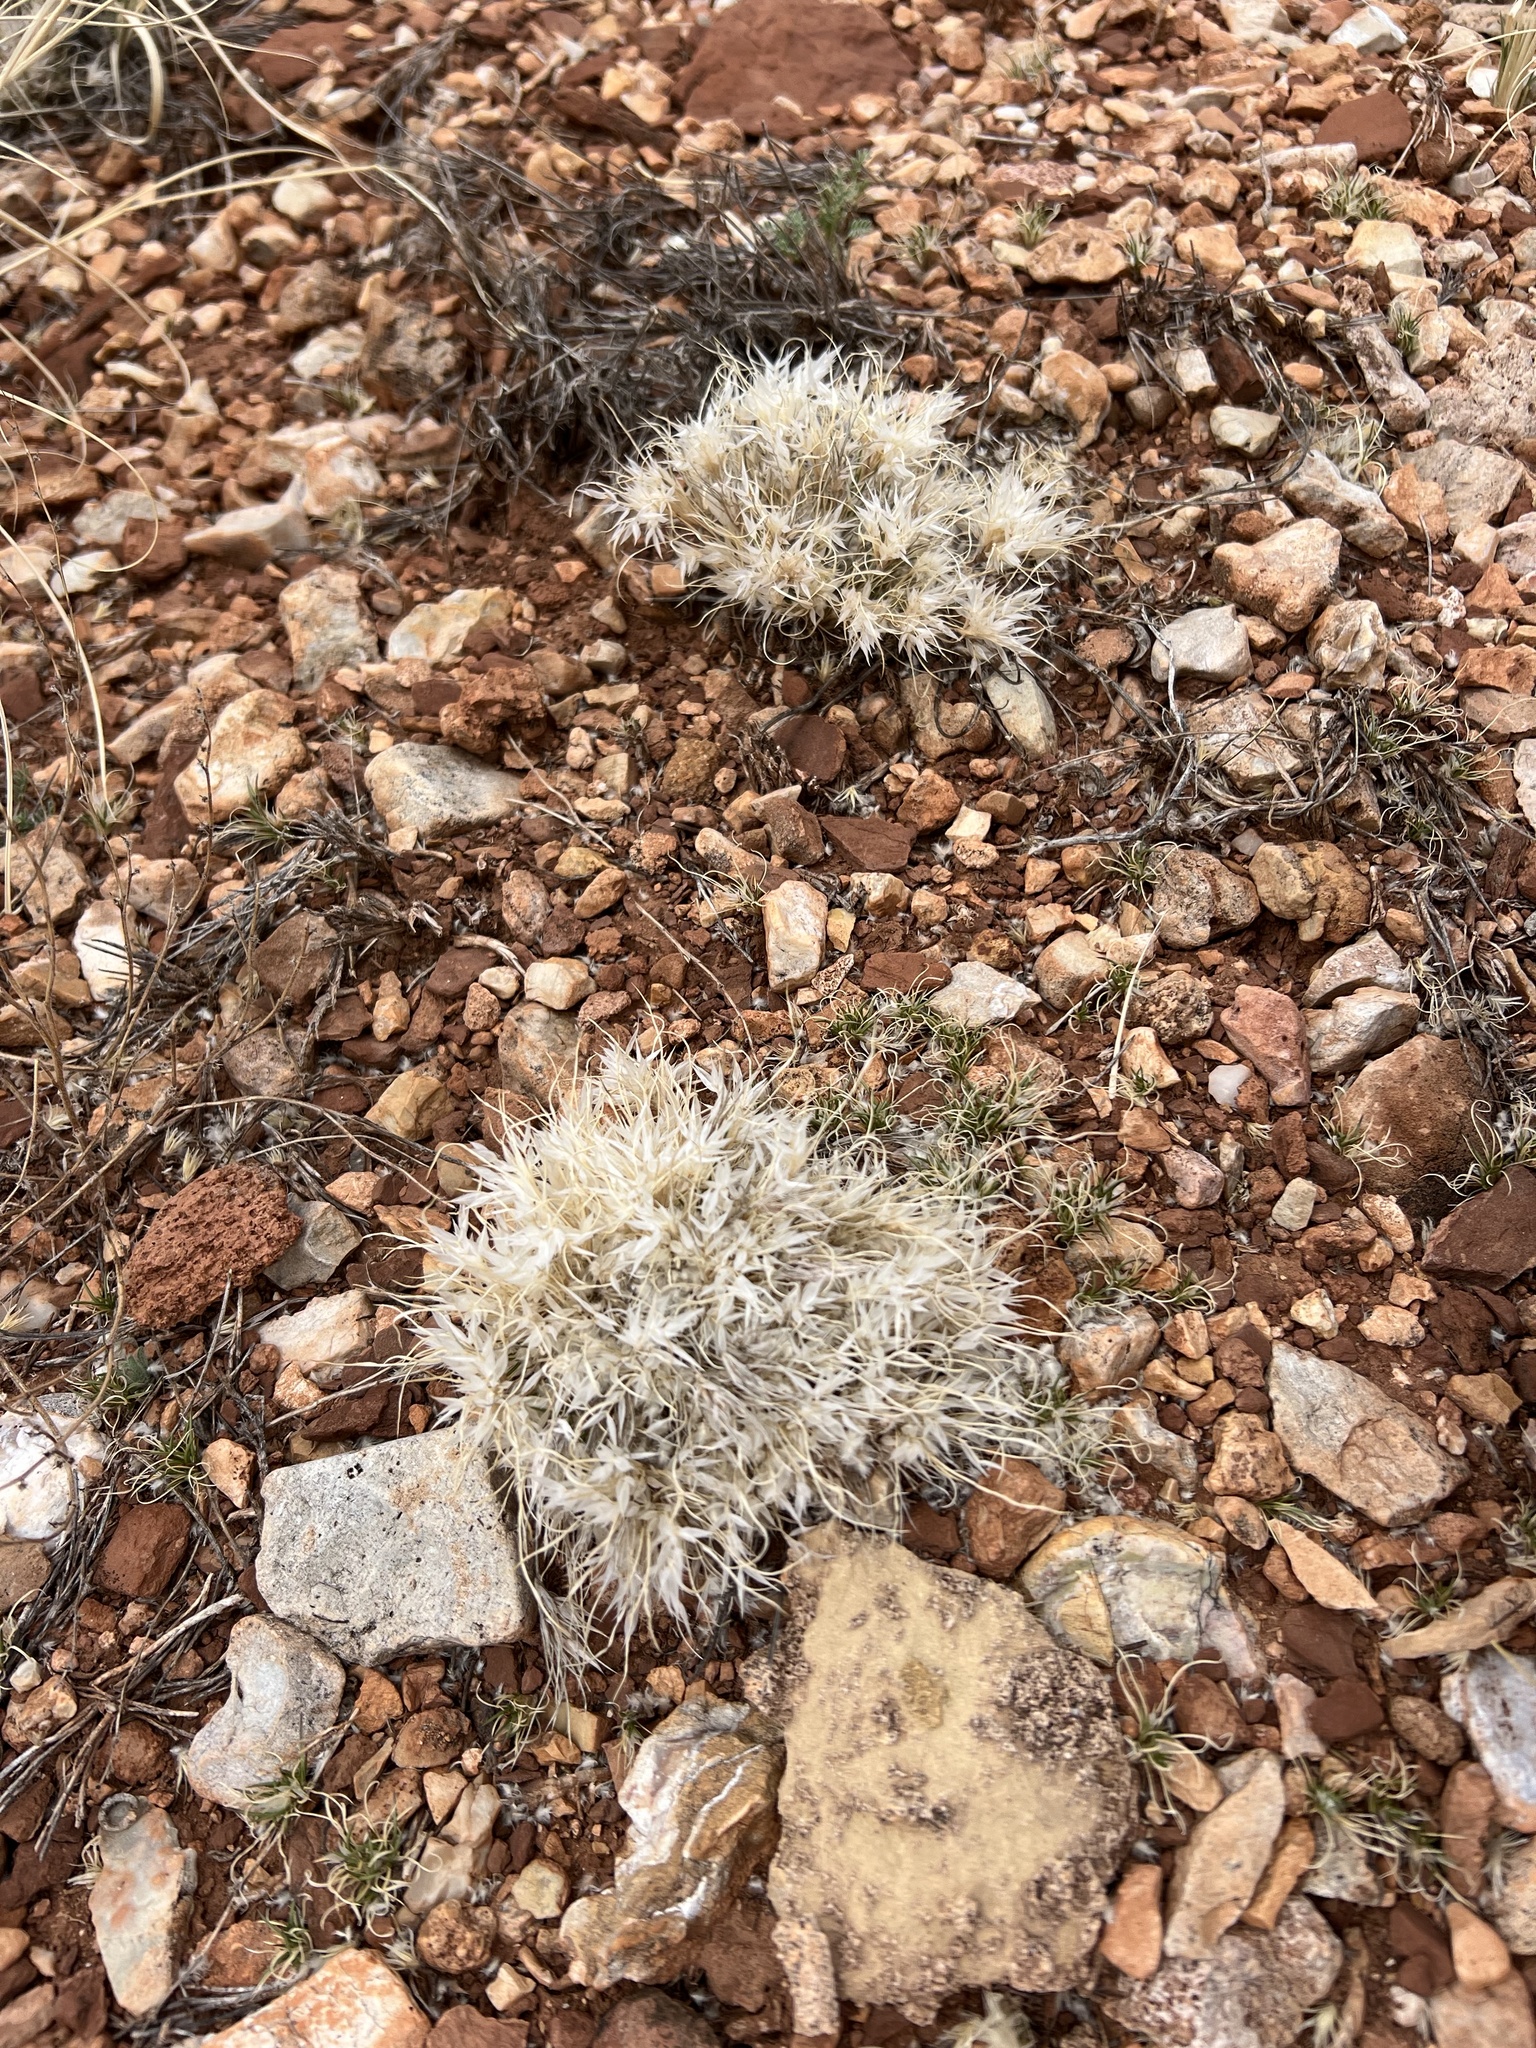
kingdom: Plantae
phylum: Tracheophyta
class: Liliopsida
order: Poales
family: Poaceae
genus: Dasyochloa
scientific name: Dasyochloa pulchella
